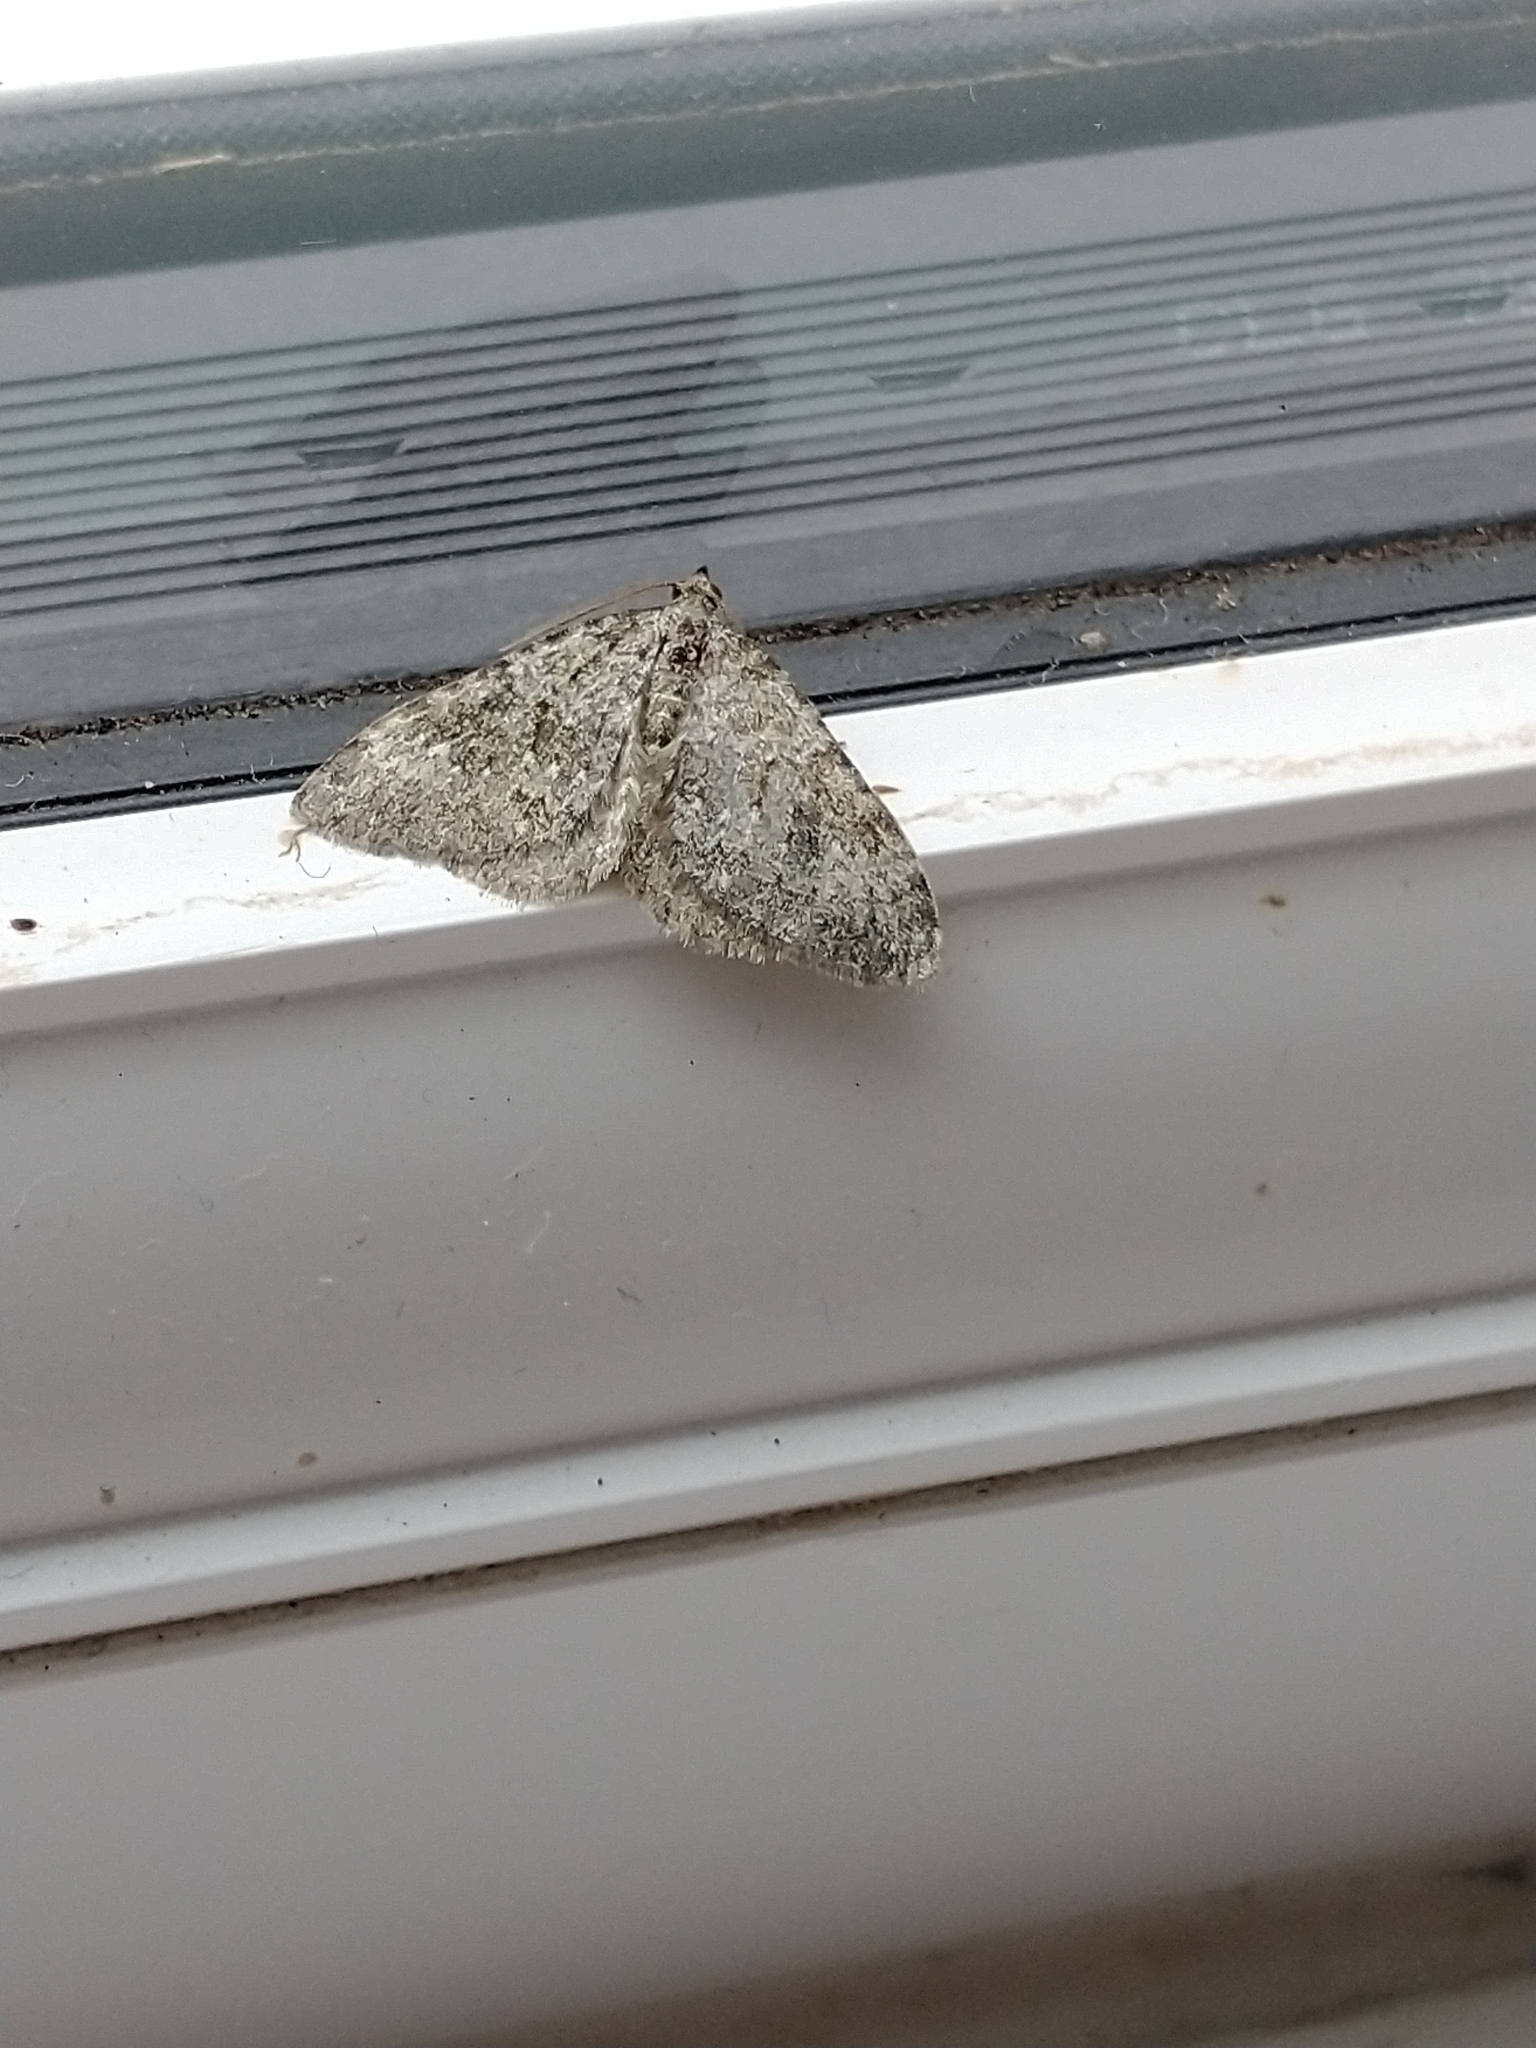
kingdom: Animalia
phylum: Arthropoda
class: Insecta
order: Lepidoptera
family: Geometridae
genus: Entephria
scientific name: Entephria caesiata
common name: Grey mountain moth
